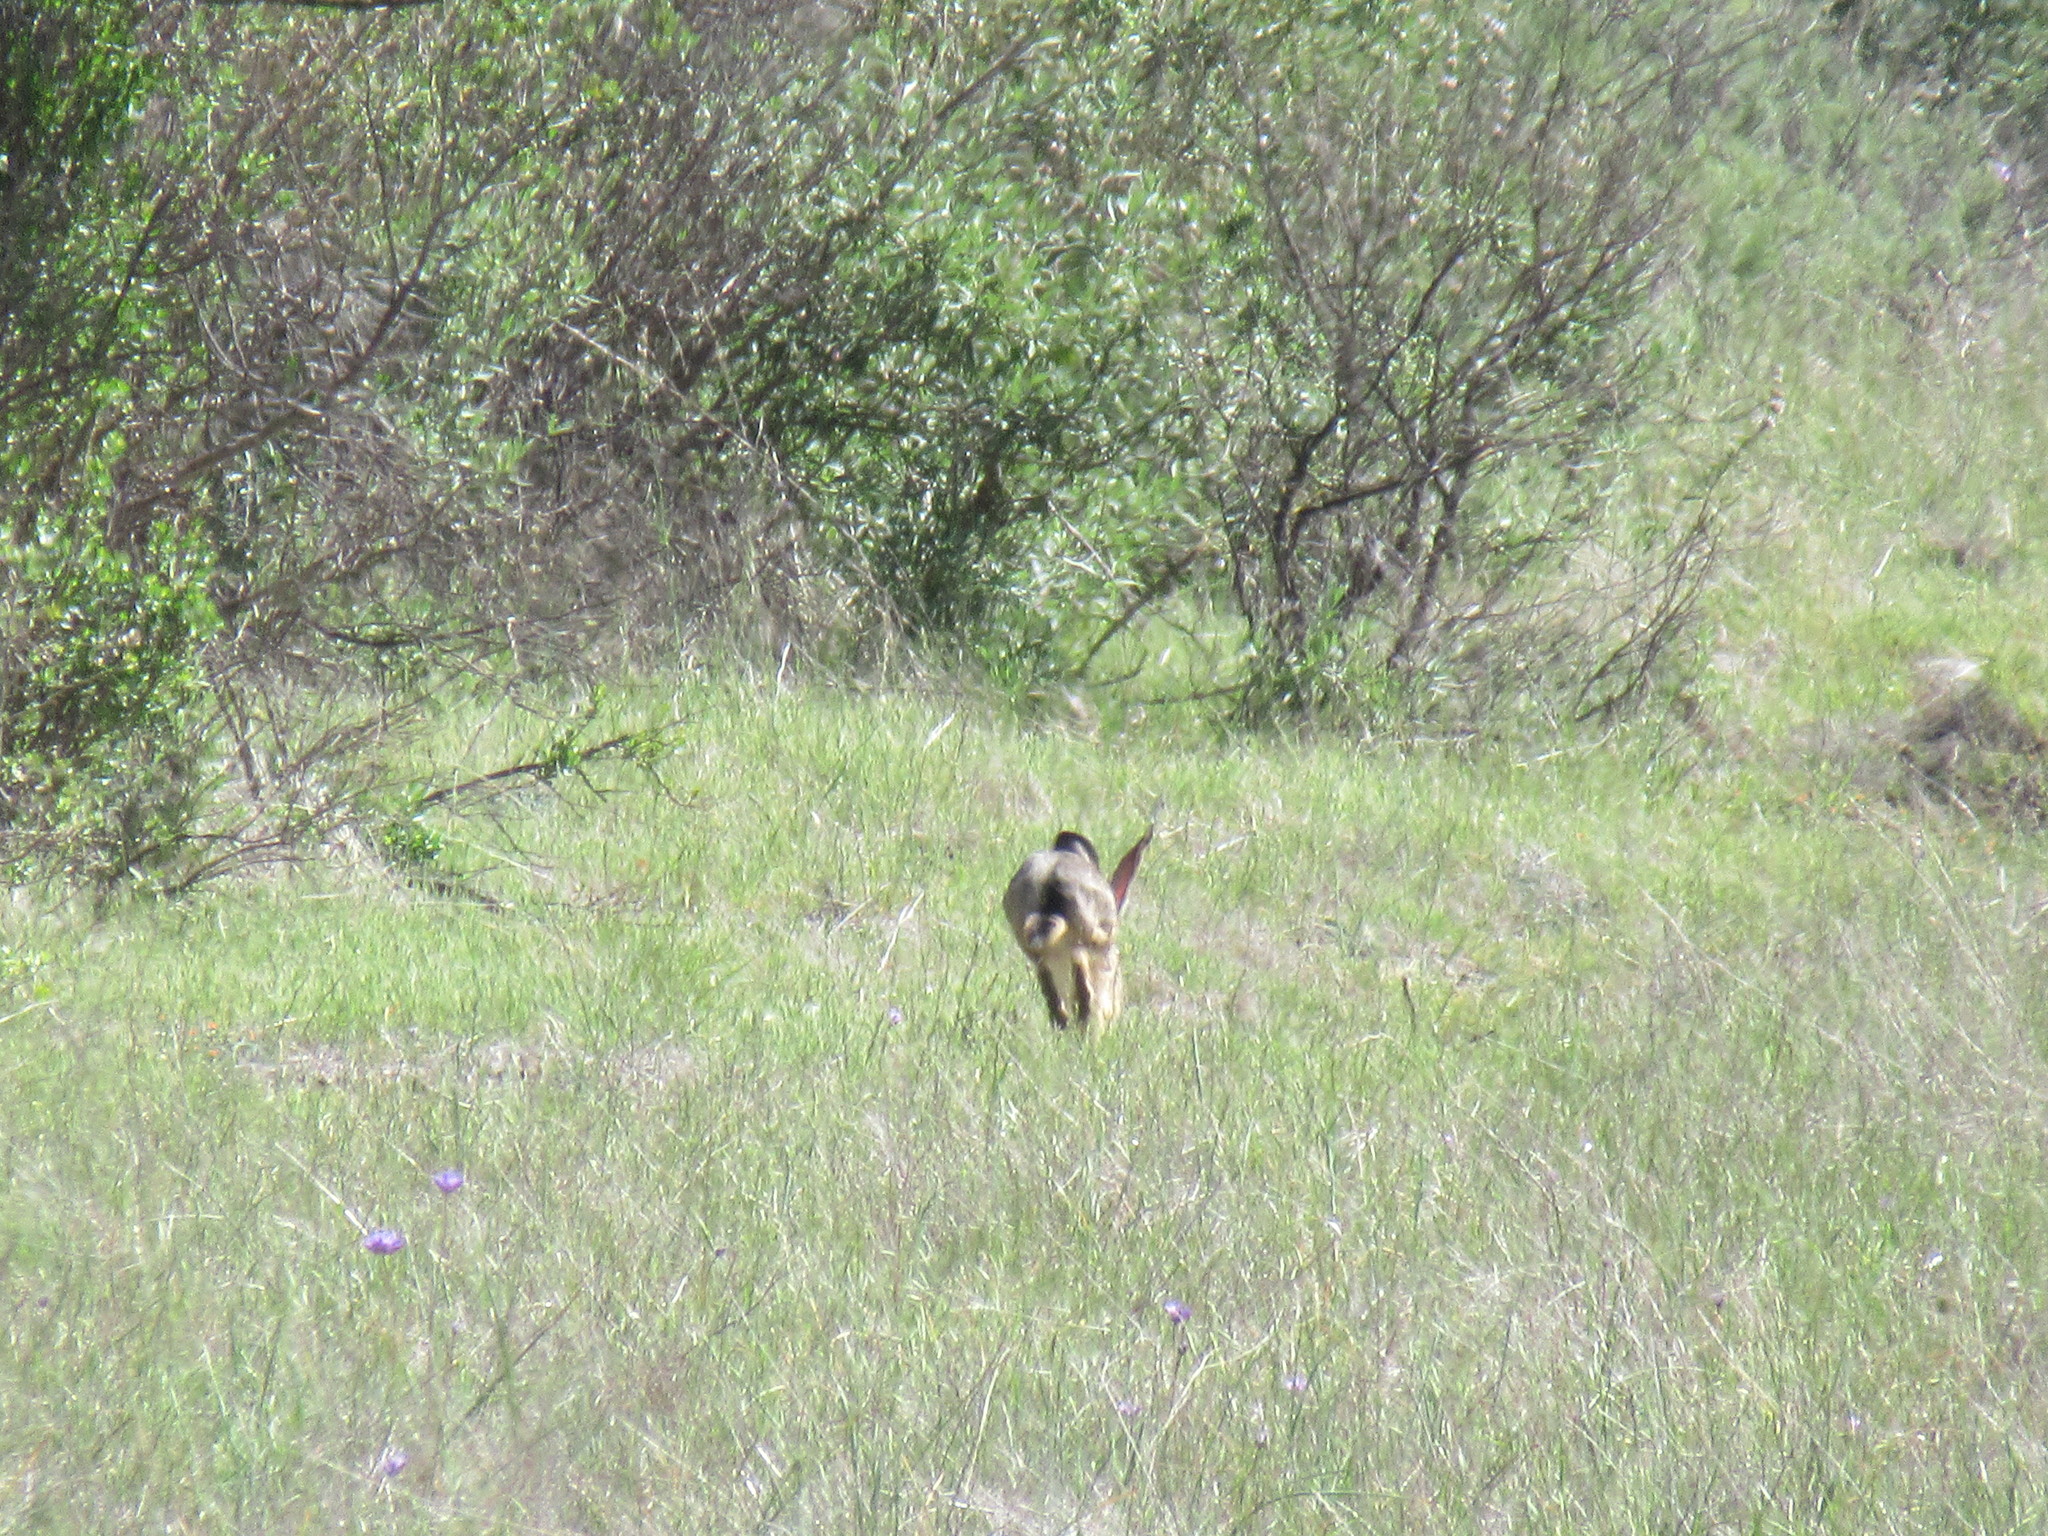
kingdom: Animalia
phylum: Chordata
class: Mammalia
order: Lagomorpha
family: Leporidae
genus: Lepus
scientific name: Lepus californicus
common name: Black-tailed jackrabbit
